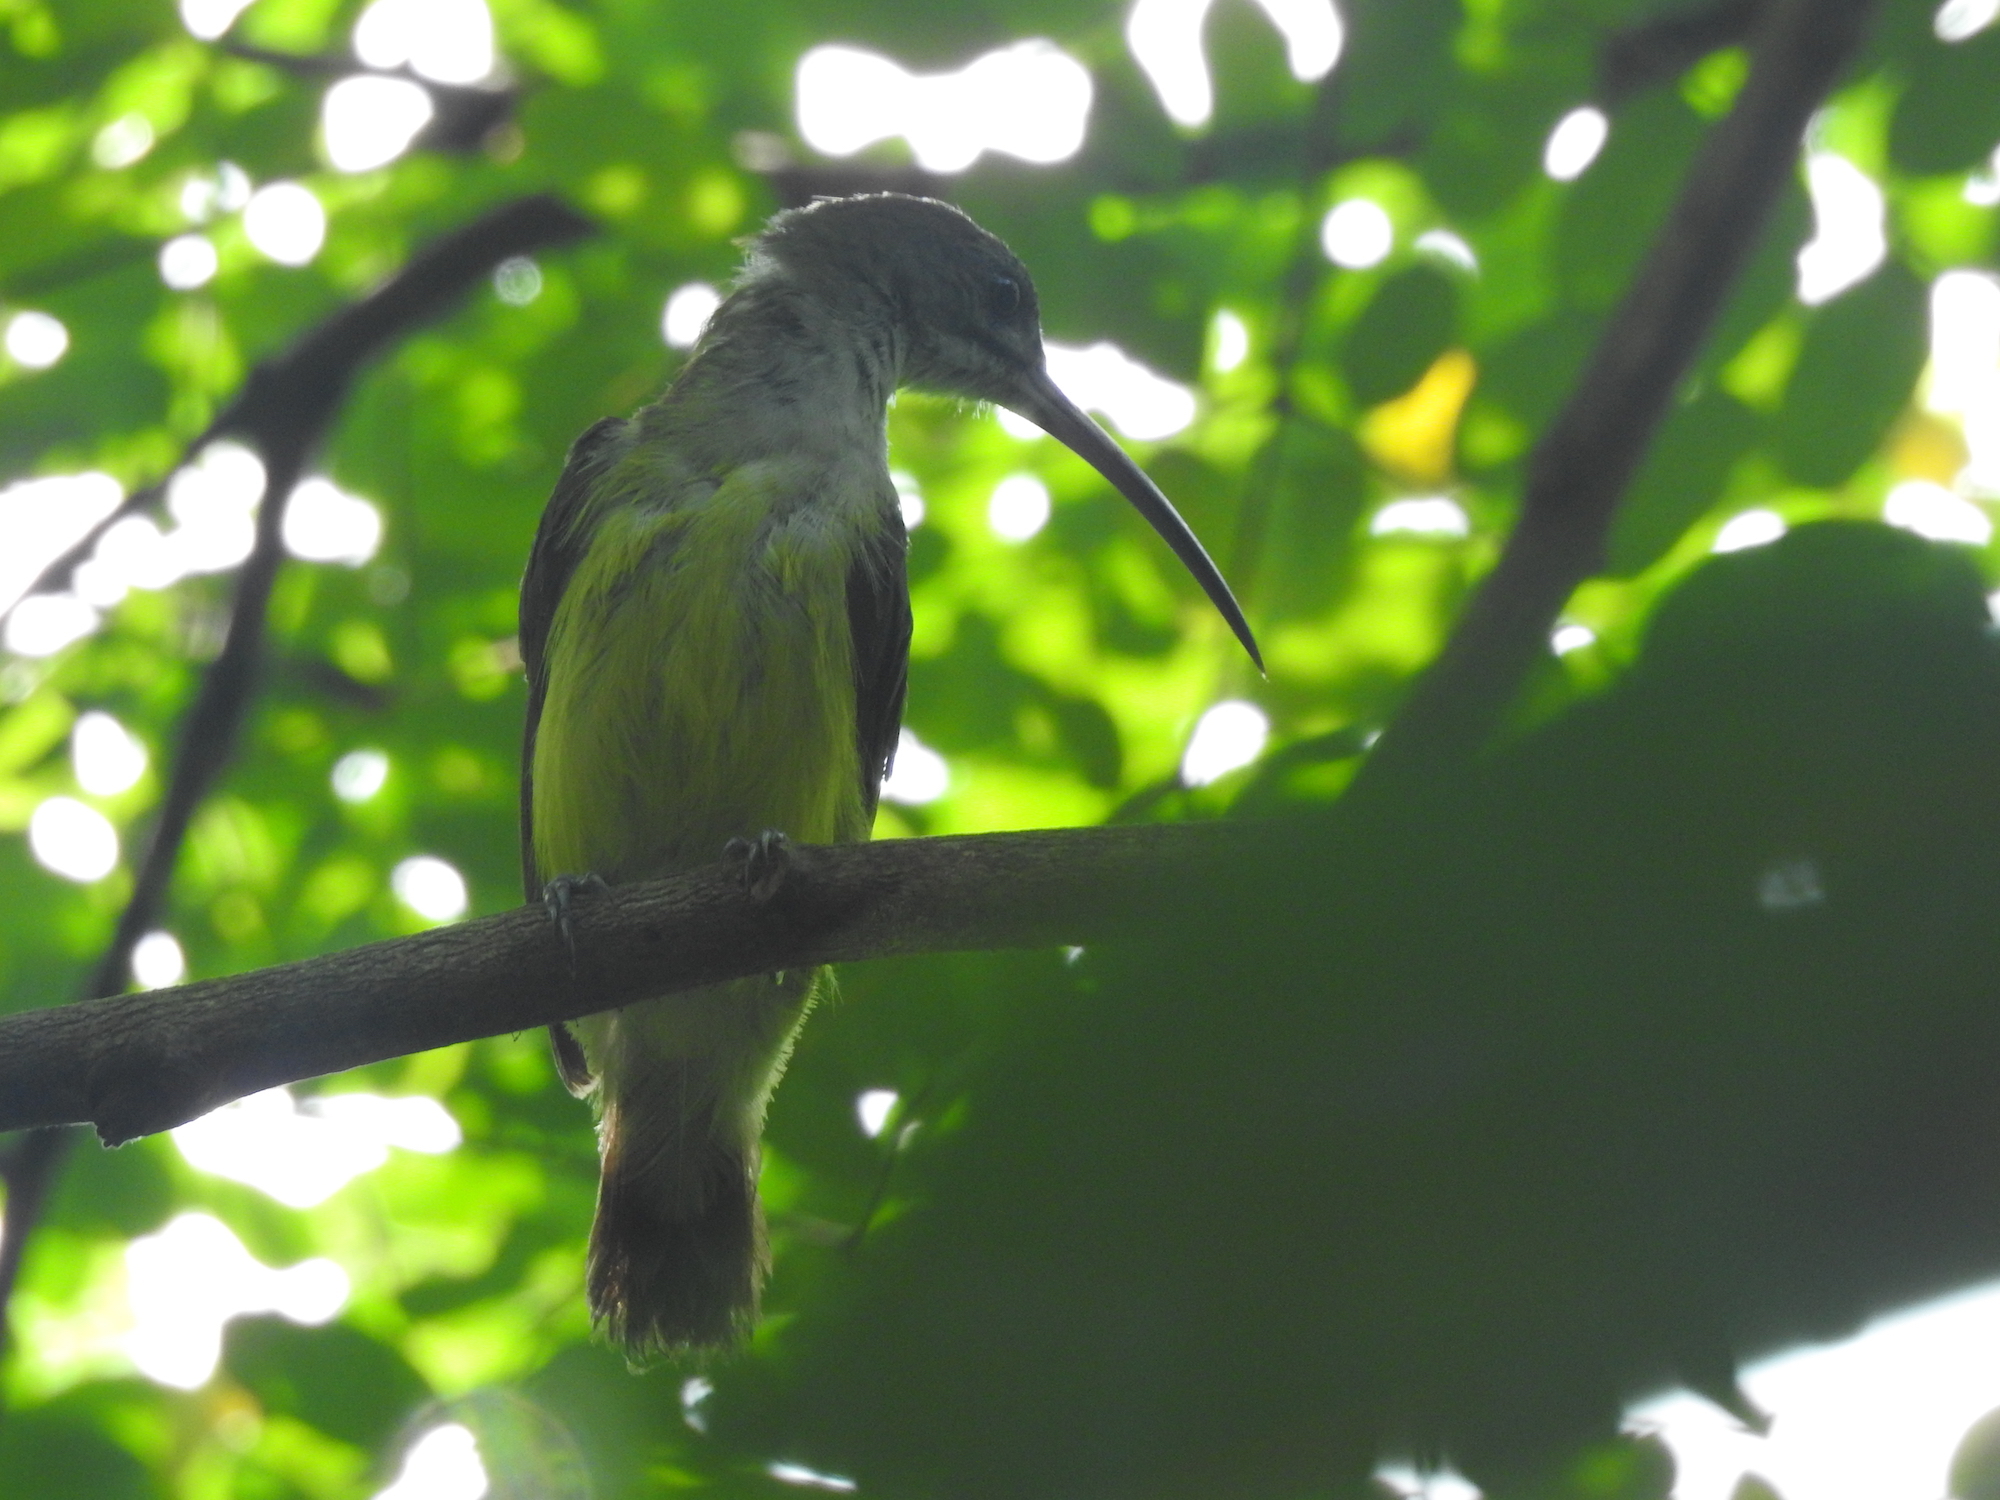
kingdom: Animalia
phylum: Chordata
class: Aves
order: Passeriformes
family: Nectariniidae
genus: Arachnothera
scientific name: Arachnothera longirostra
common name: Little spiderhunter
